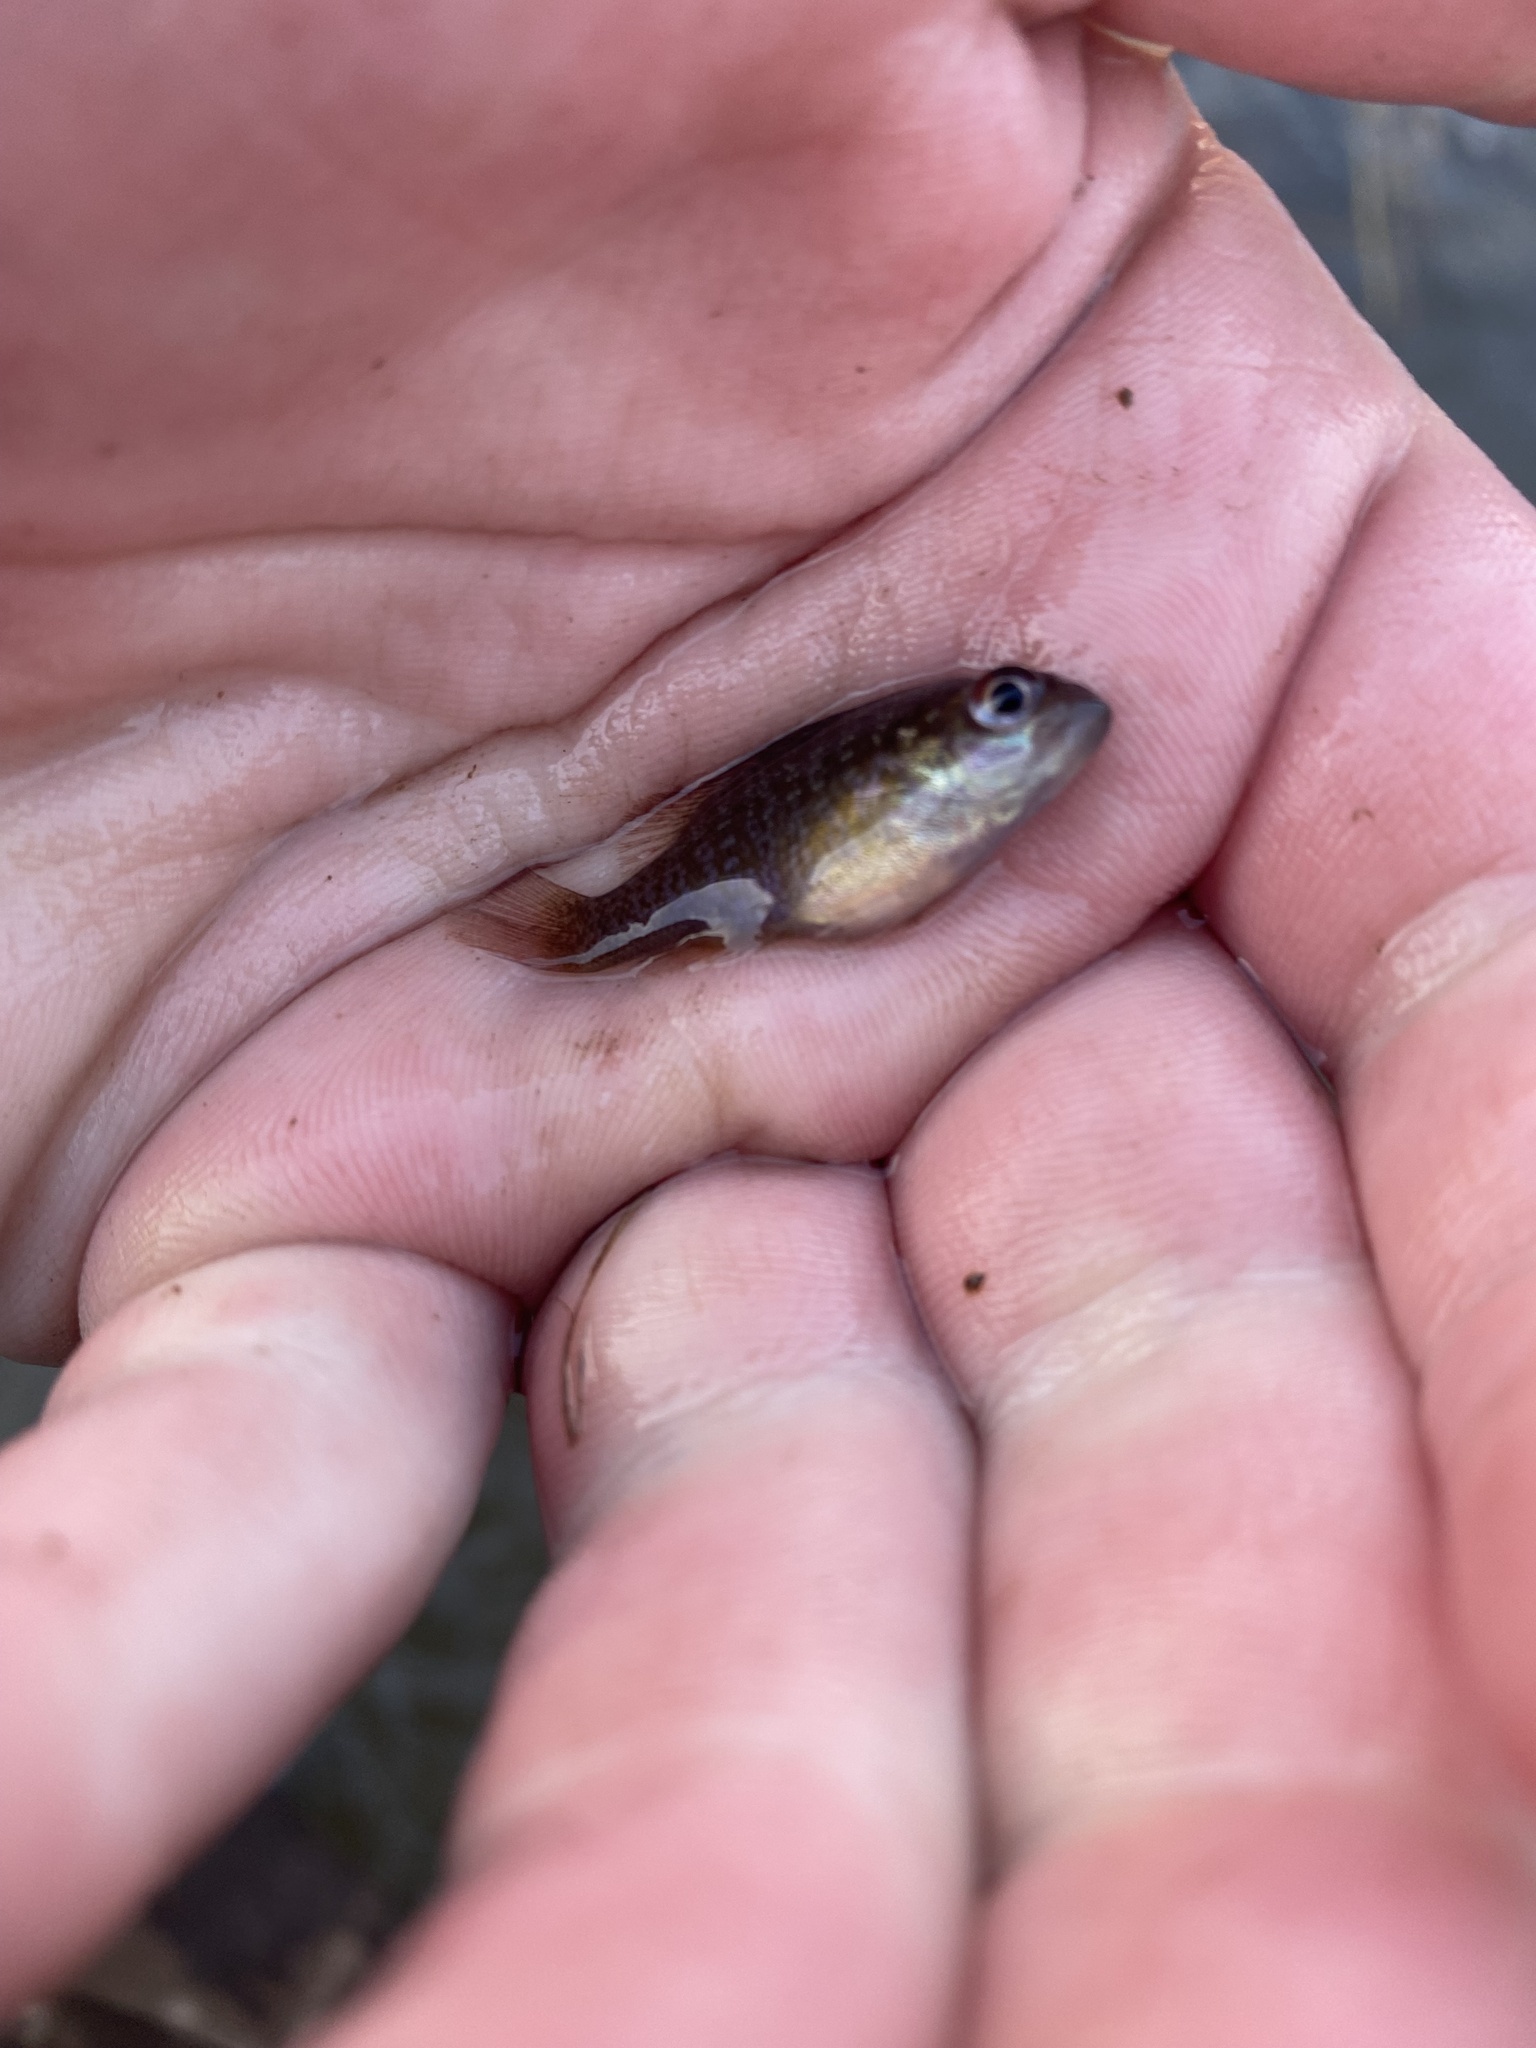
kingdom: Animalia
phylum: Chordata
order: Perciformes
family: Centrarchidae
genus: Lepomis
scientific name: Lepomis cyanellus
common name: Green sunfish
